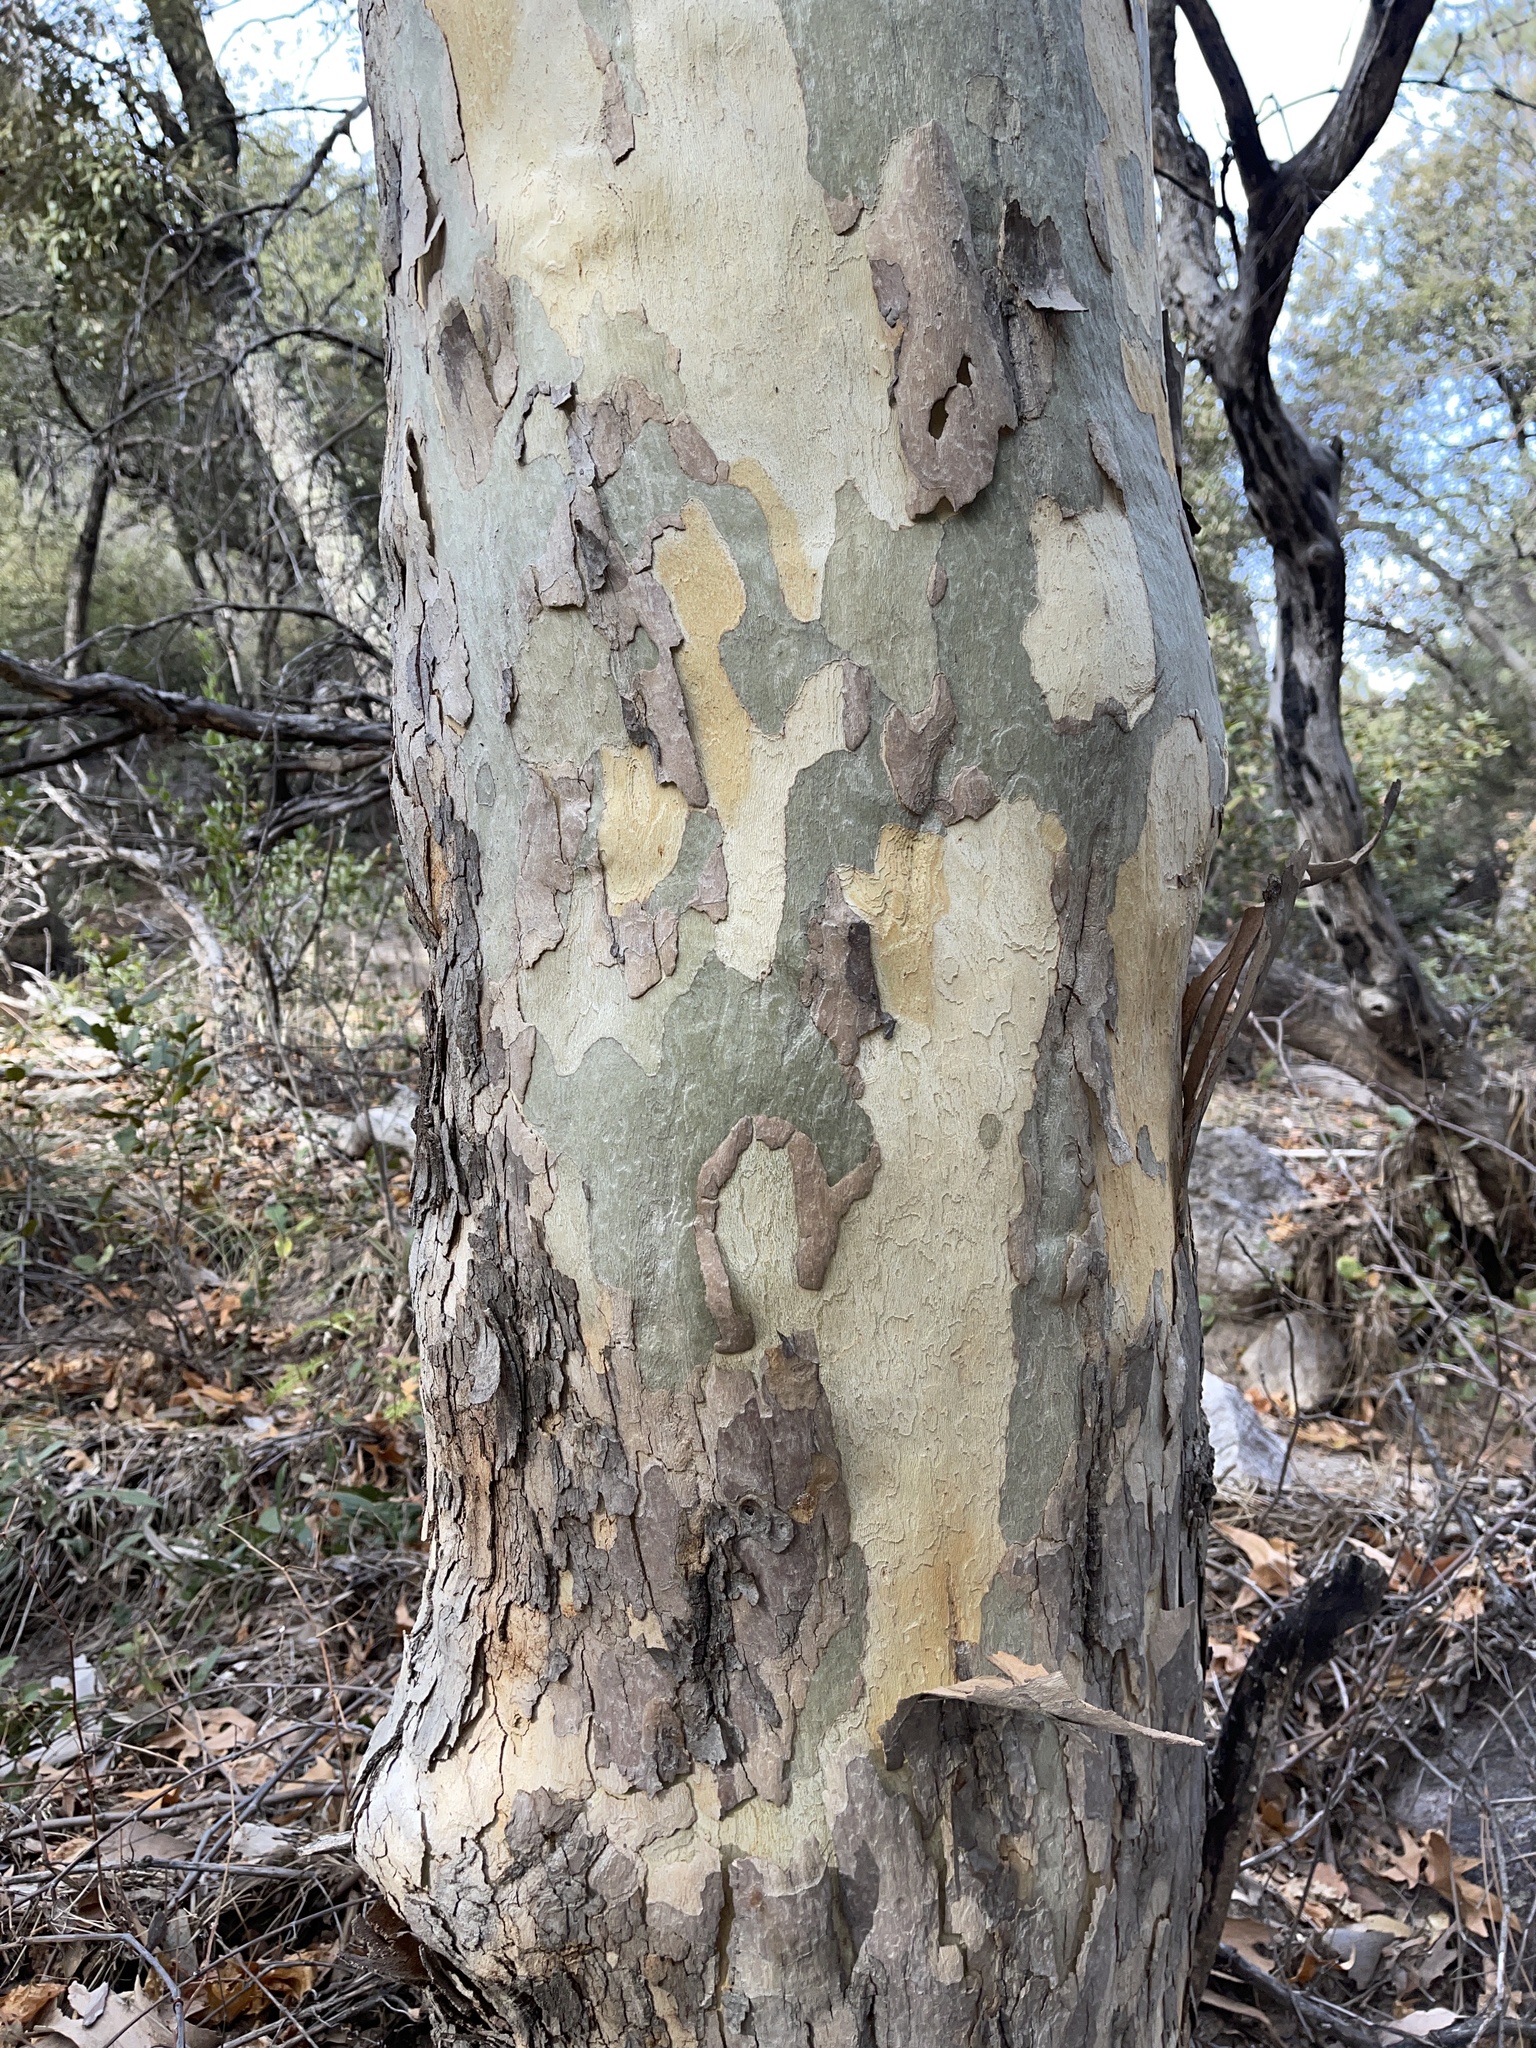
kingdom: Plantae
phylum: Tracheophyta
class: Magnoliopsida
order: Proteales
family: Platanaceae
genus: Platanus
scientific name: Platanus wrightii
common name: Arizona sycamore
